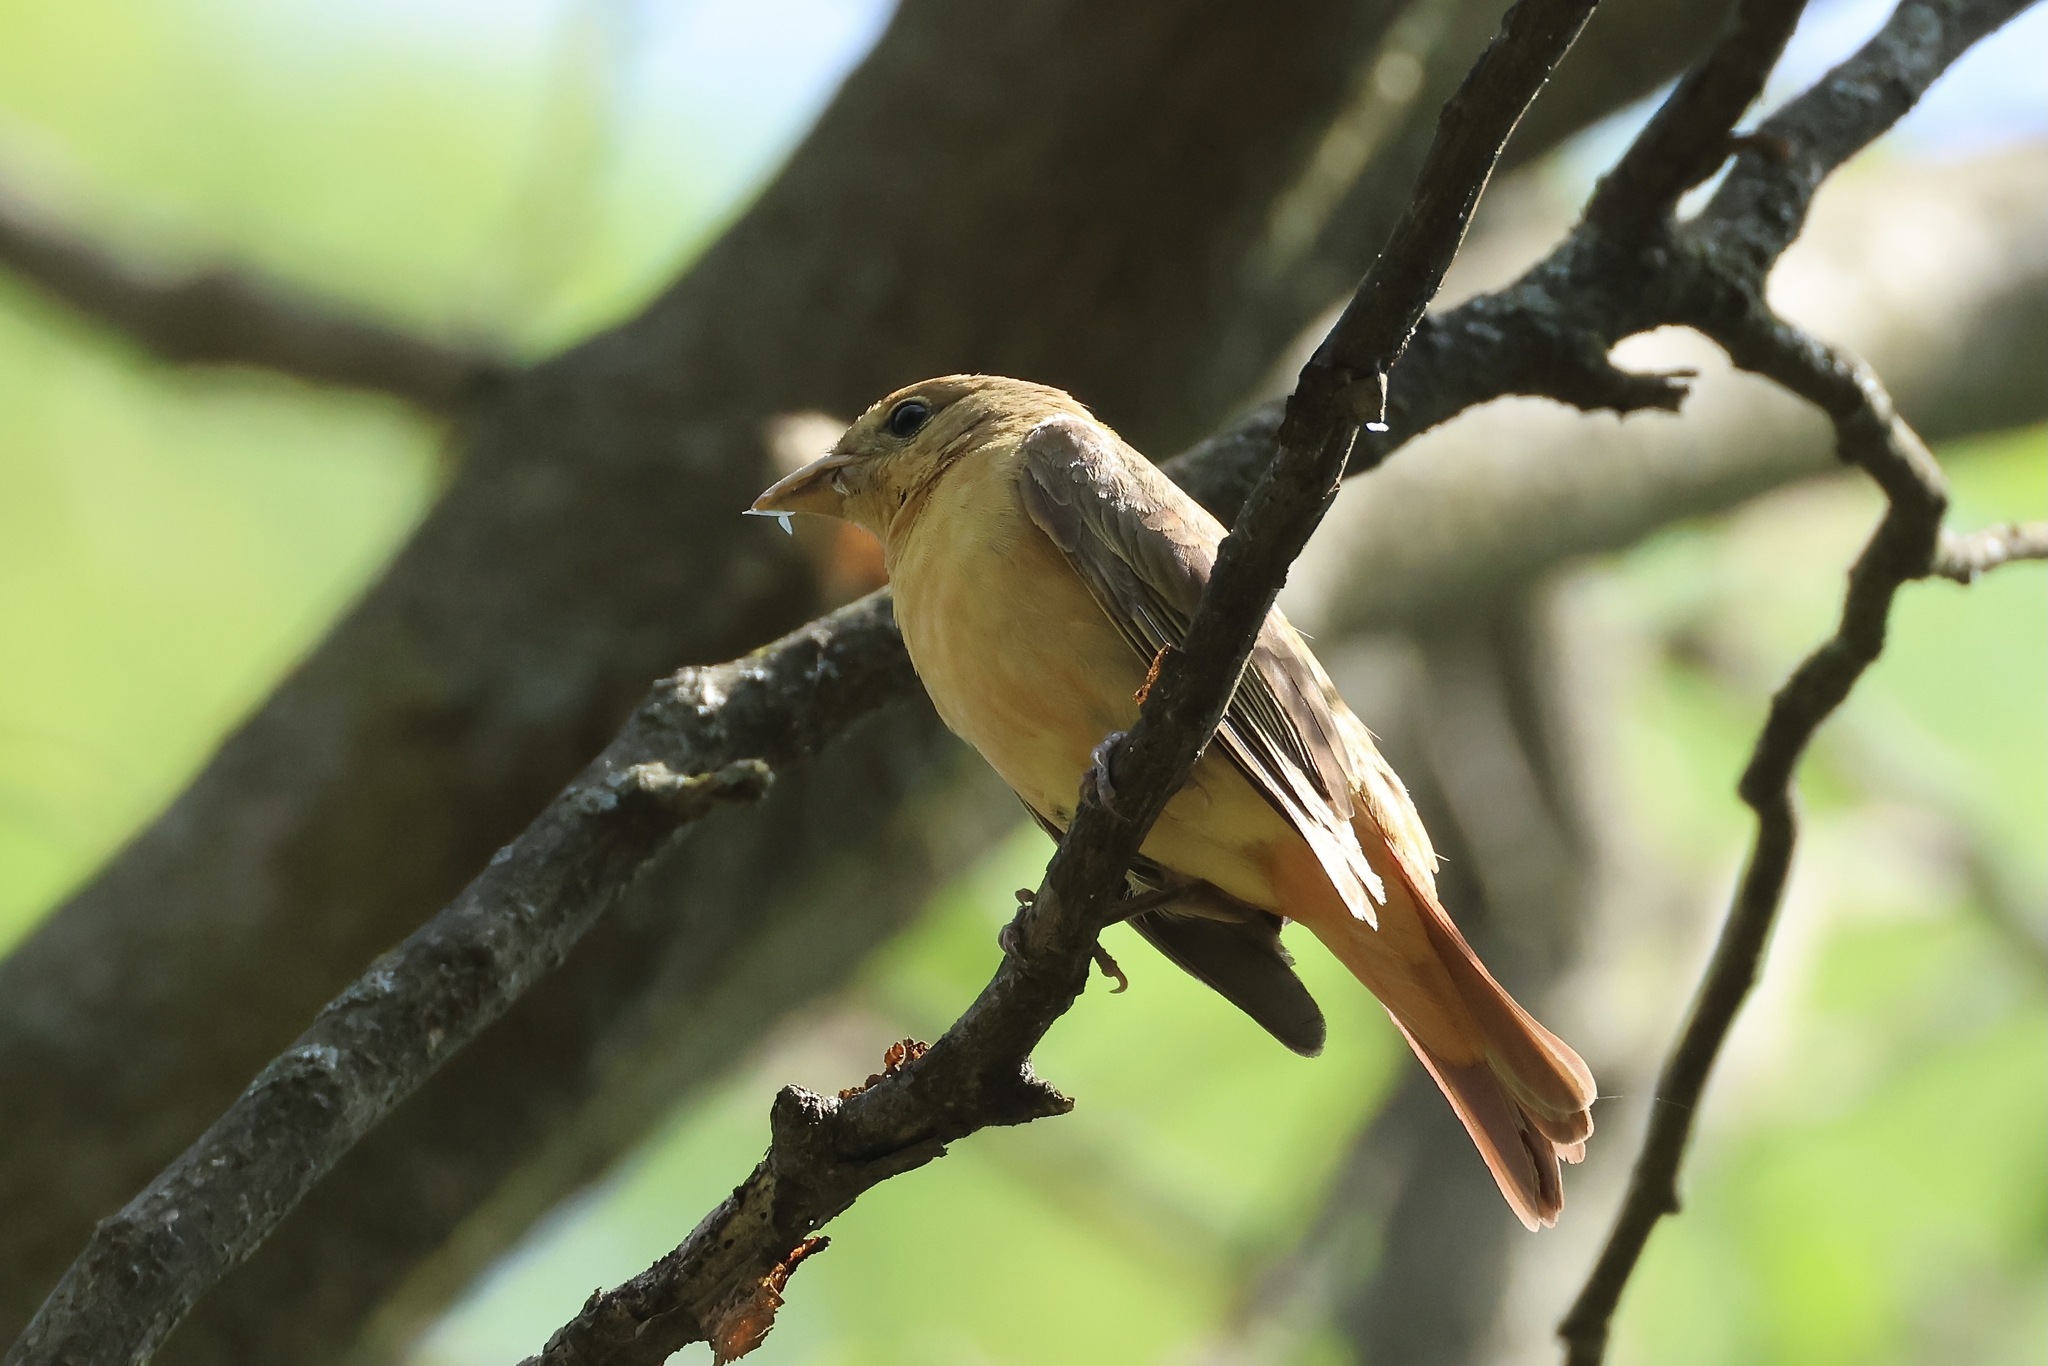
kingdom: Animalia
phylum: Chordata
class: Aves
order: Passeriformes
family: Cardinalidae
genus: Piranga
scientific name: Piranga rubra
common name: Summer tanager
